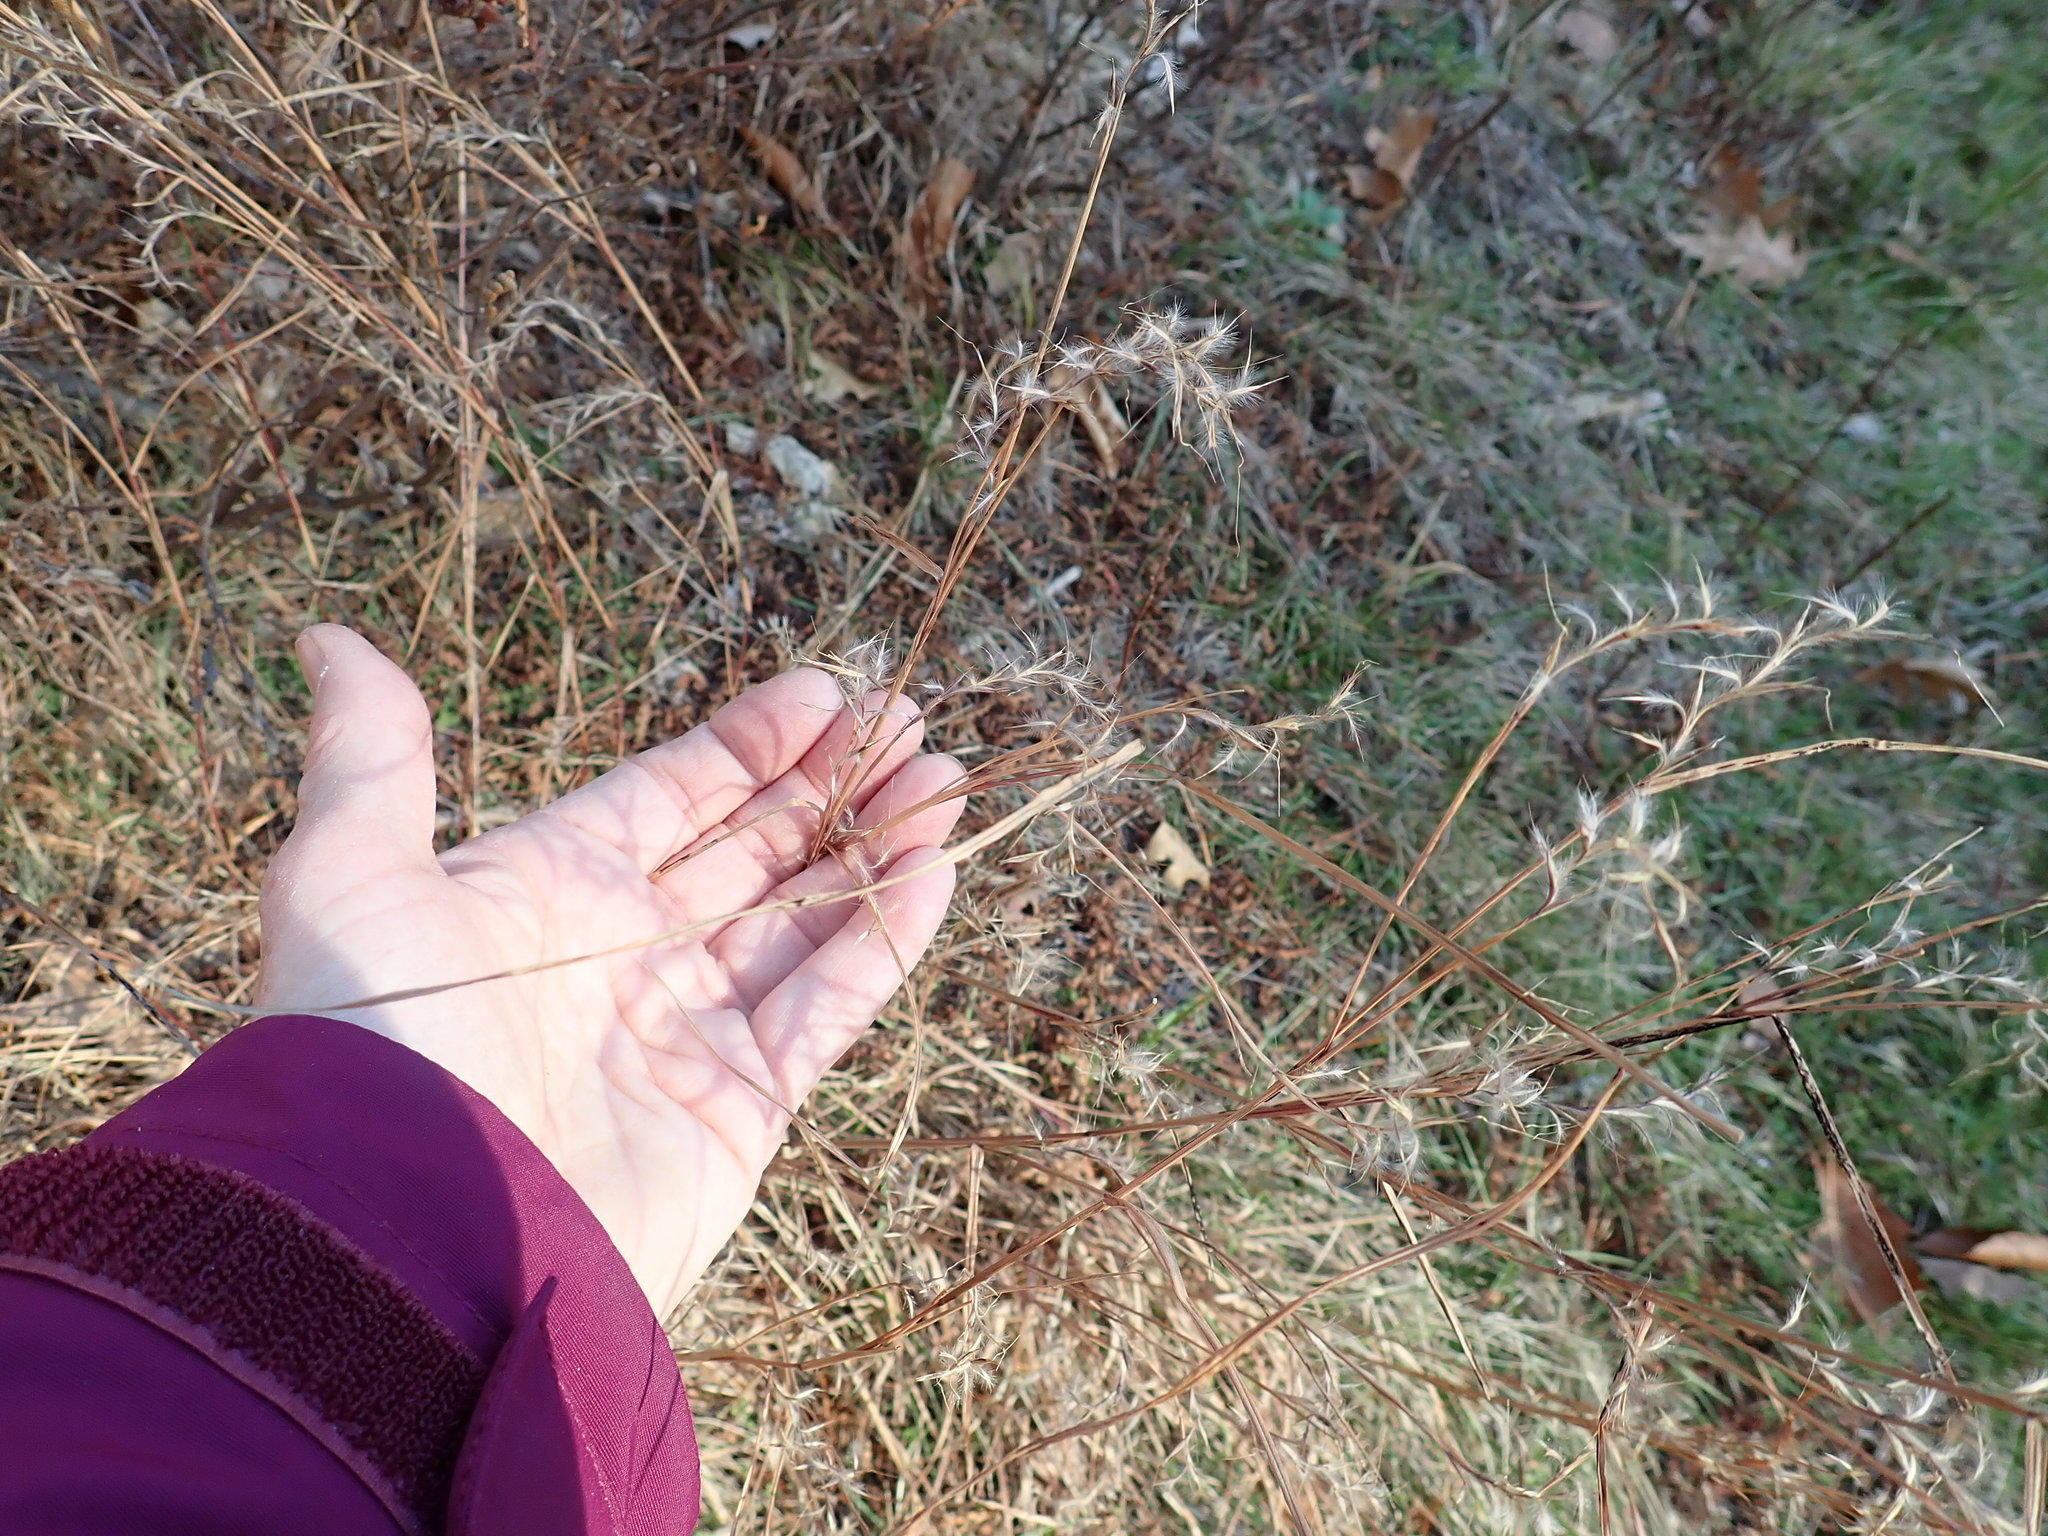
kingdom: Plantae
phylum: Tracheophyta
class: Liliopsida
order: Poales
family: Poaceae
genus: Schizachyrium
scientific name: Schizachyrium scoparium
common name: Little bluestem
